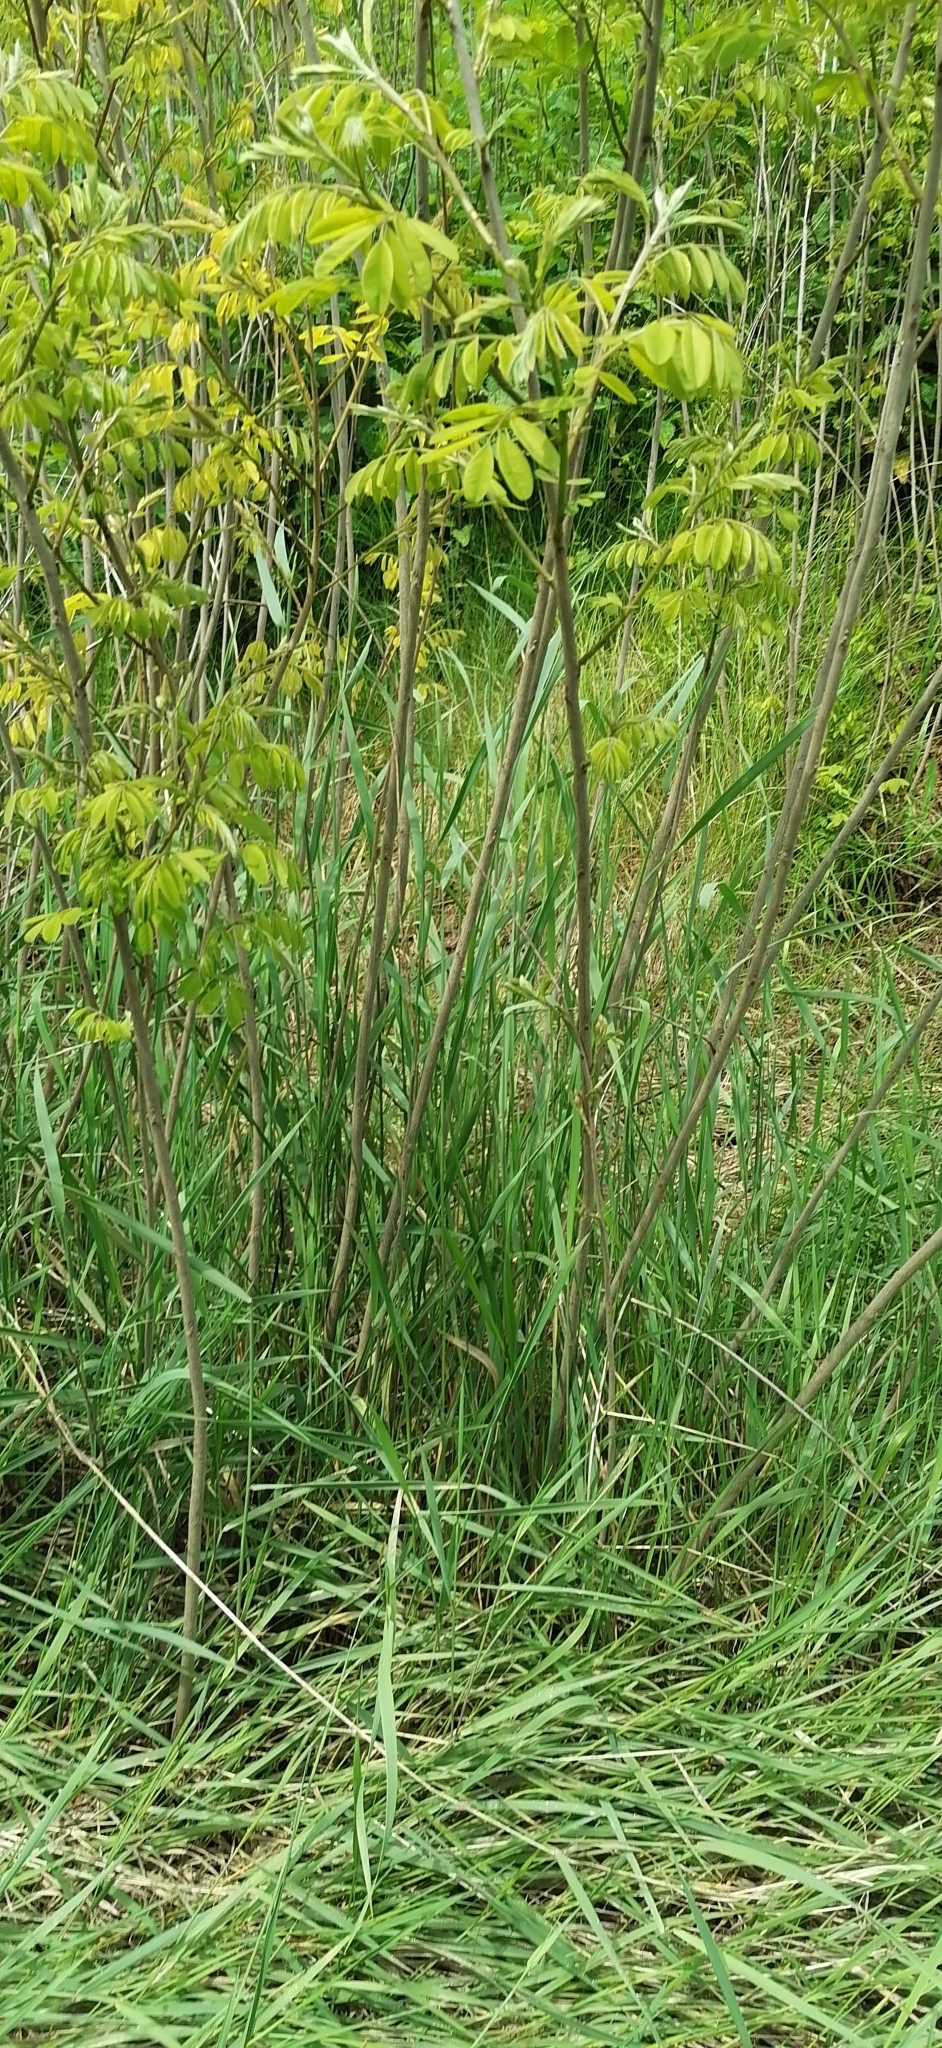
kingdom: Plantae
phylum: Tracheophyta
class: Magnoliopsida
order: Fabales
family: Fabaceae
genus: Amorpha
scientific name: Amorpha fruticosa
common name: False indigo
